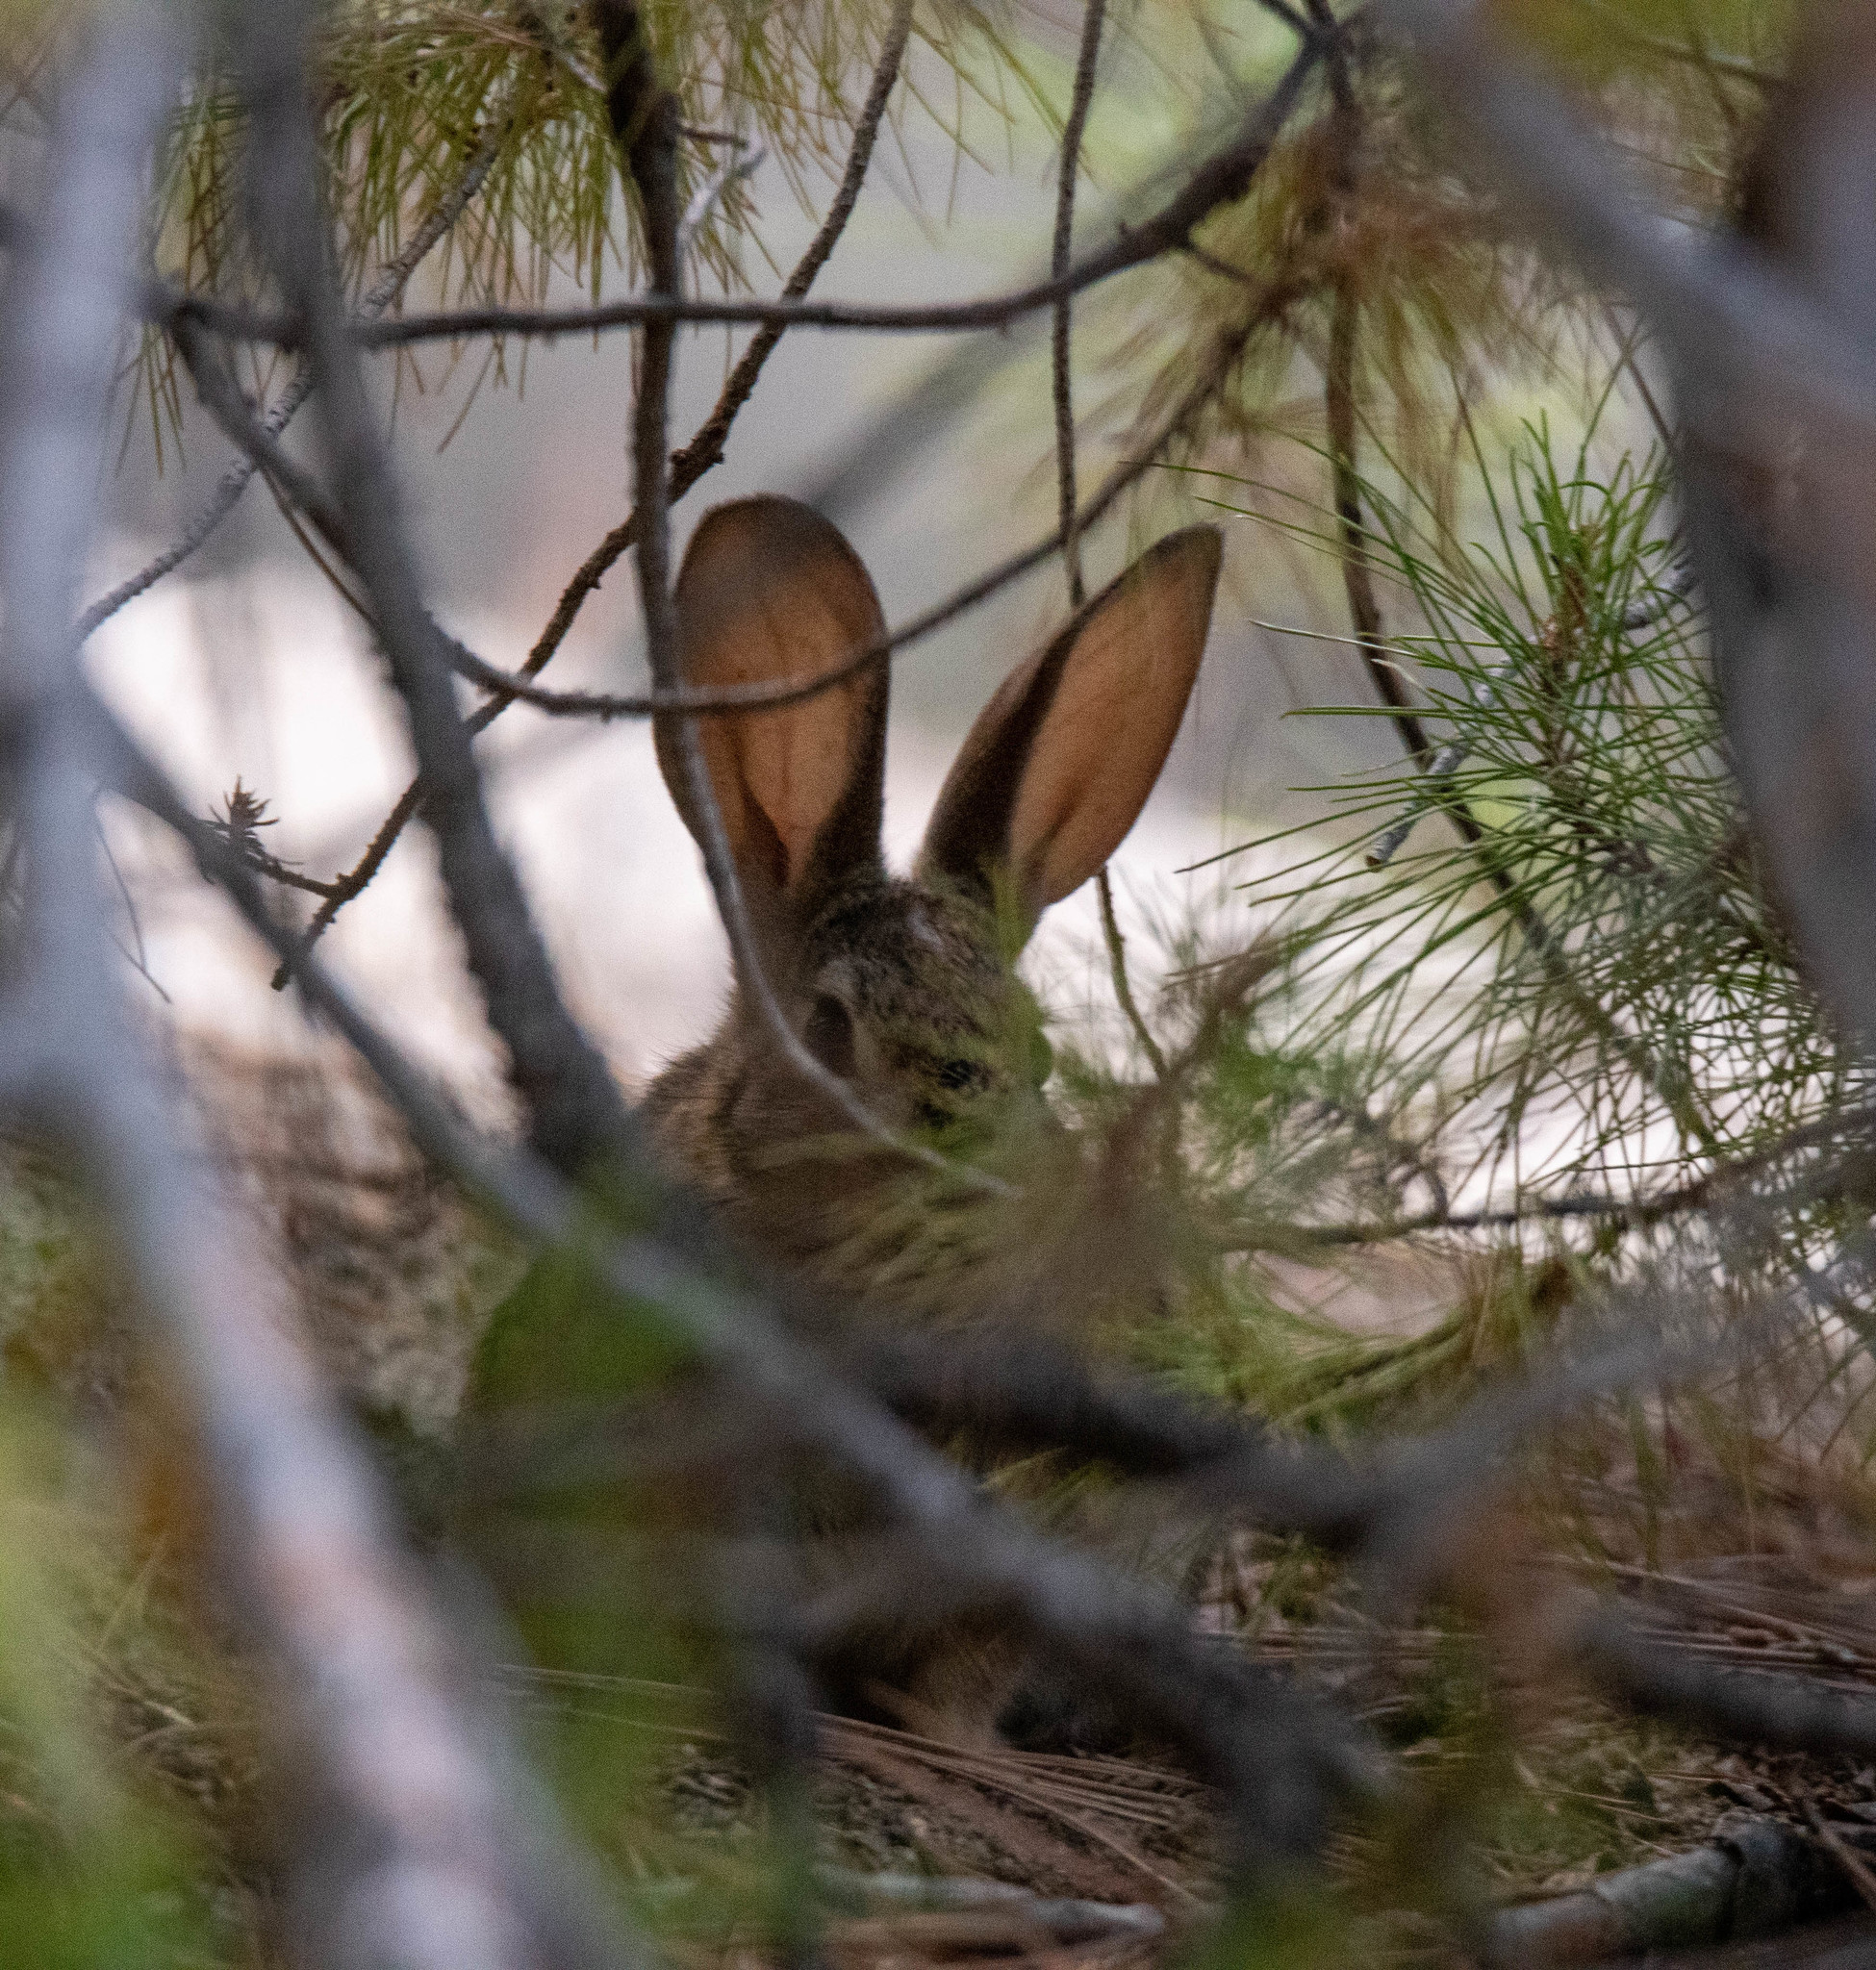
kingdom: Animalia
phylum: Chordata
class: Mammalia
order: Lagomorpha
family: Leporidae
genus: Sylvilagus
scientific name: Sylvilagus audubonii
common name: Desert cottontail
